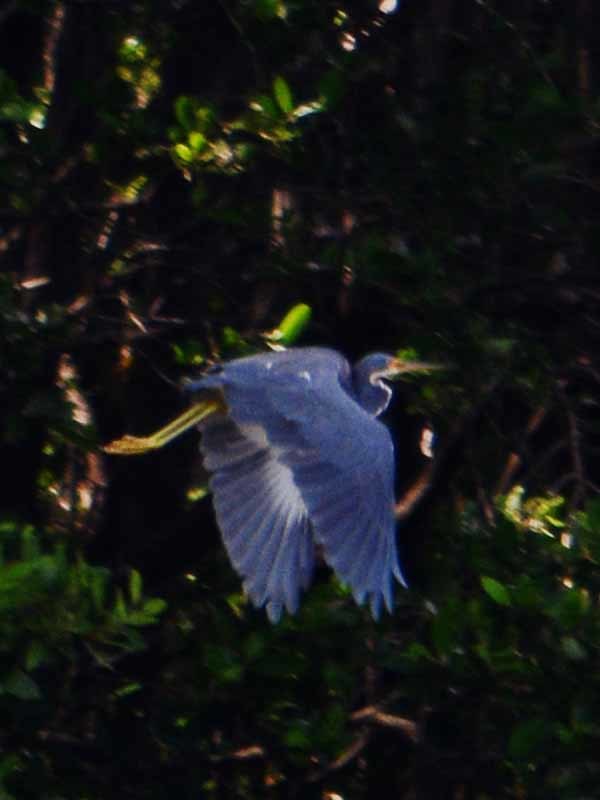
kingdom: Animalia
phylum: Chordata
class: Aves
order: Pelecaniformes
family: Ardeidae
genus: Egretta
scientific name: Egretta tricolor
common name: Tricolored heron
